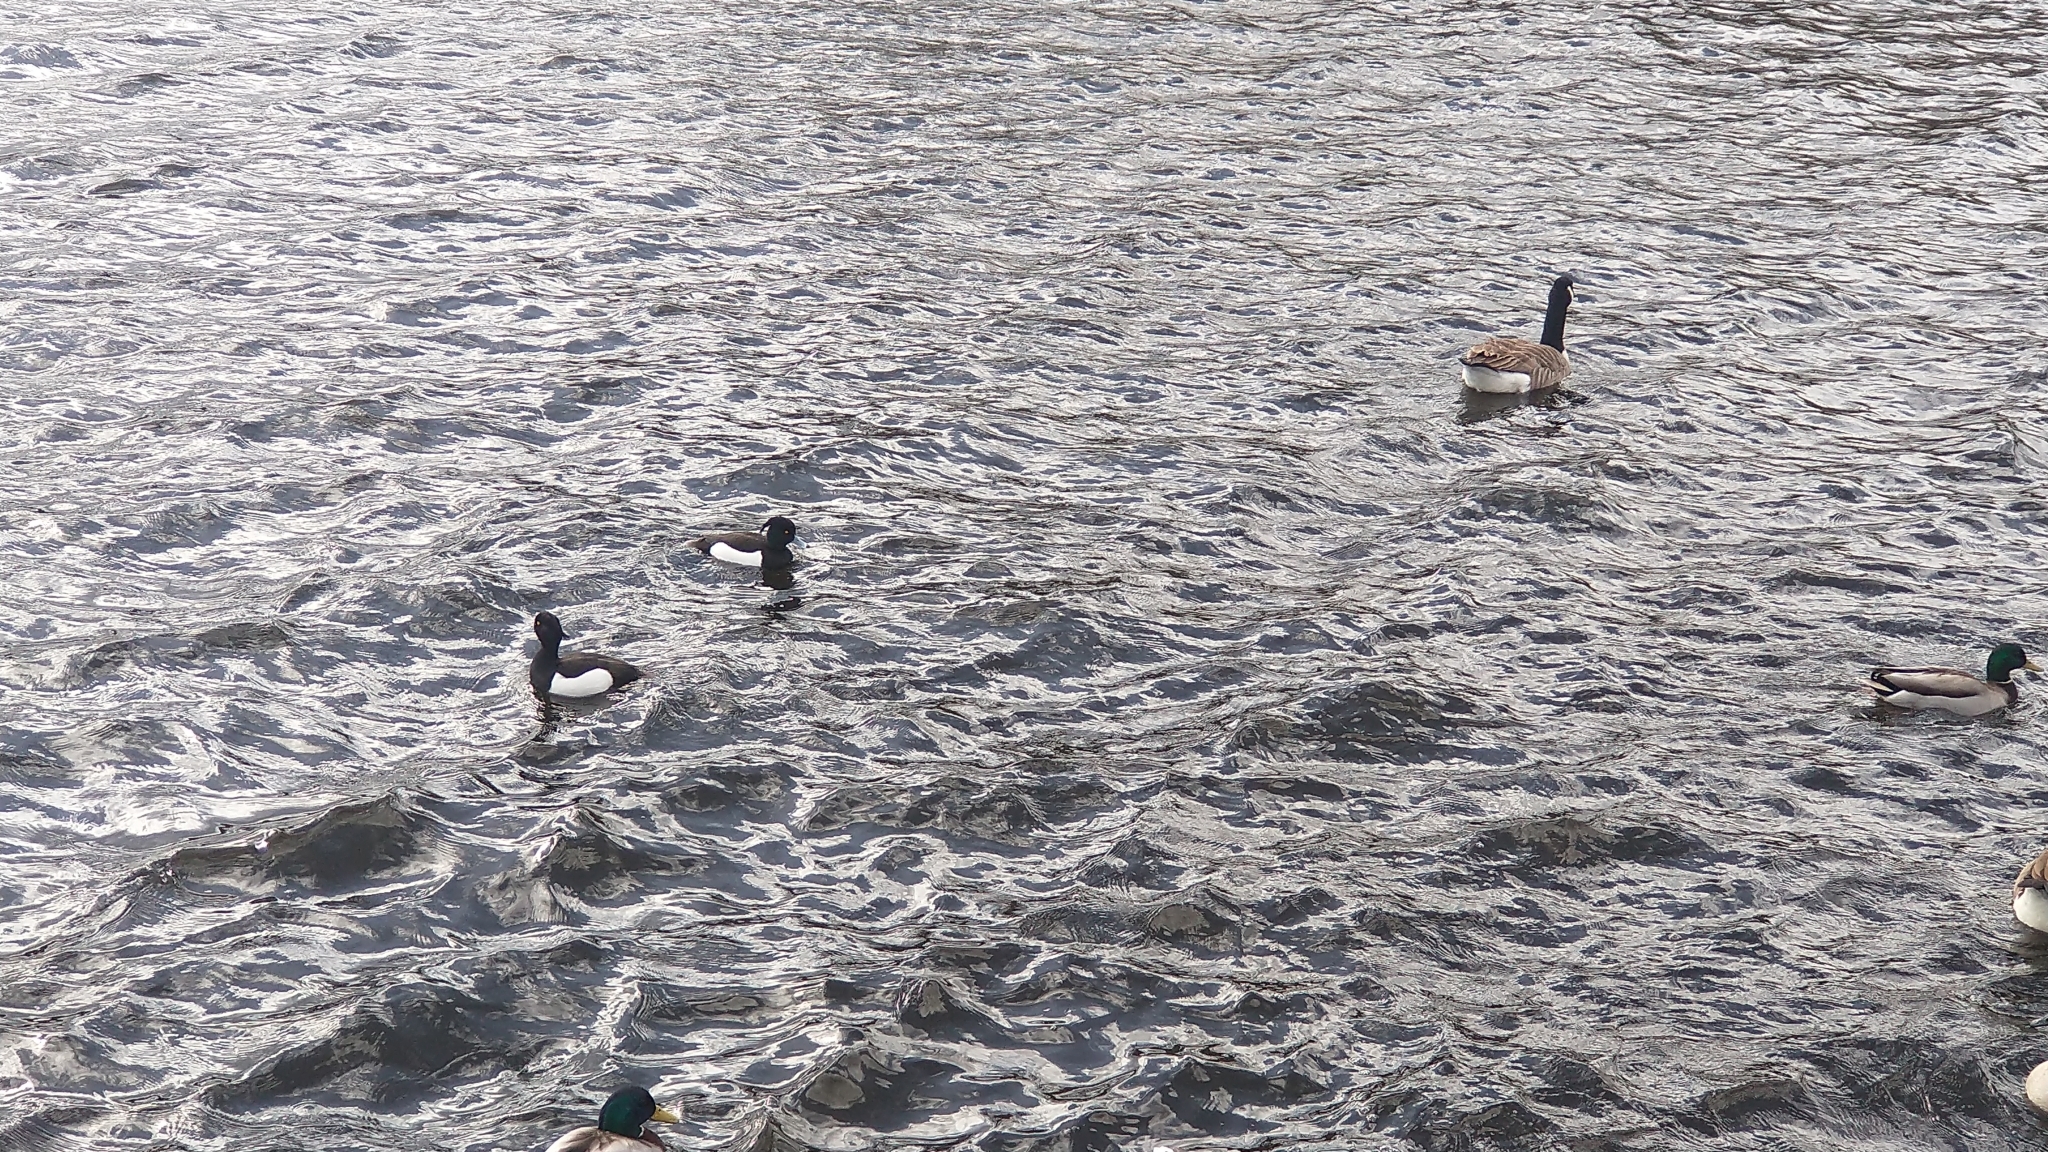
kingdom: Animalia
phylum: Chordata
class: Aves
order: Anseriformes
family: Anatidae
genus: Aythya
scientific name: Aythya fuligula
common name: Tufted duck
